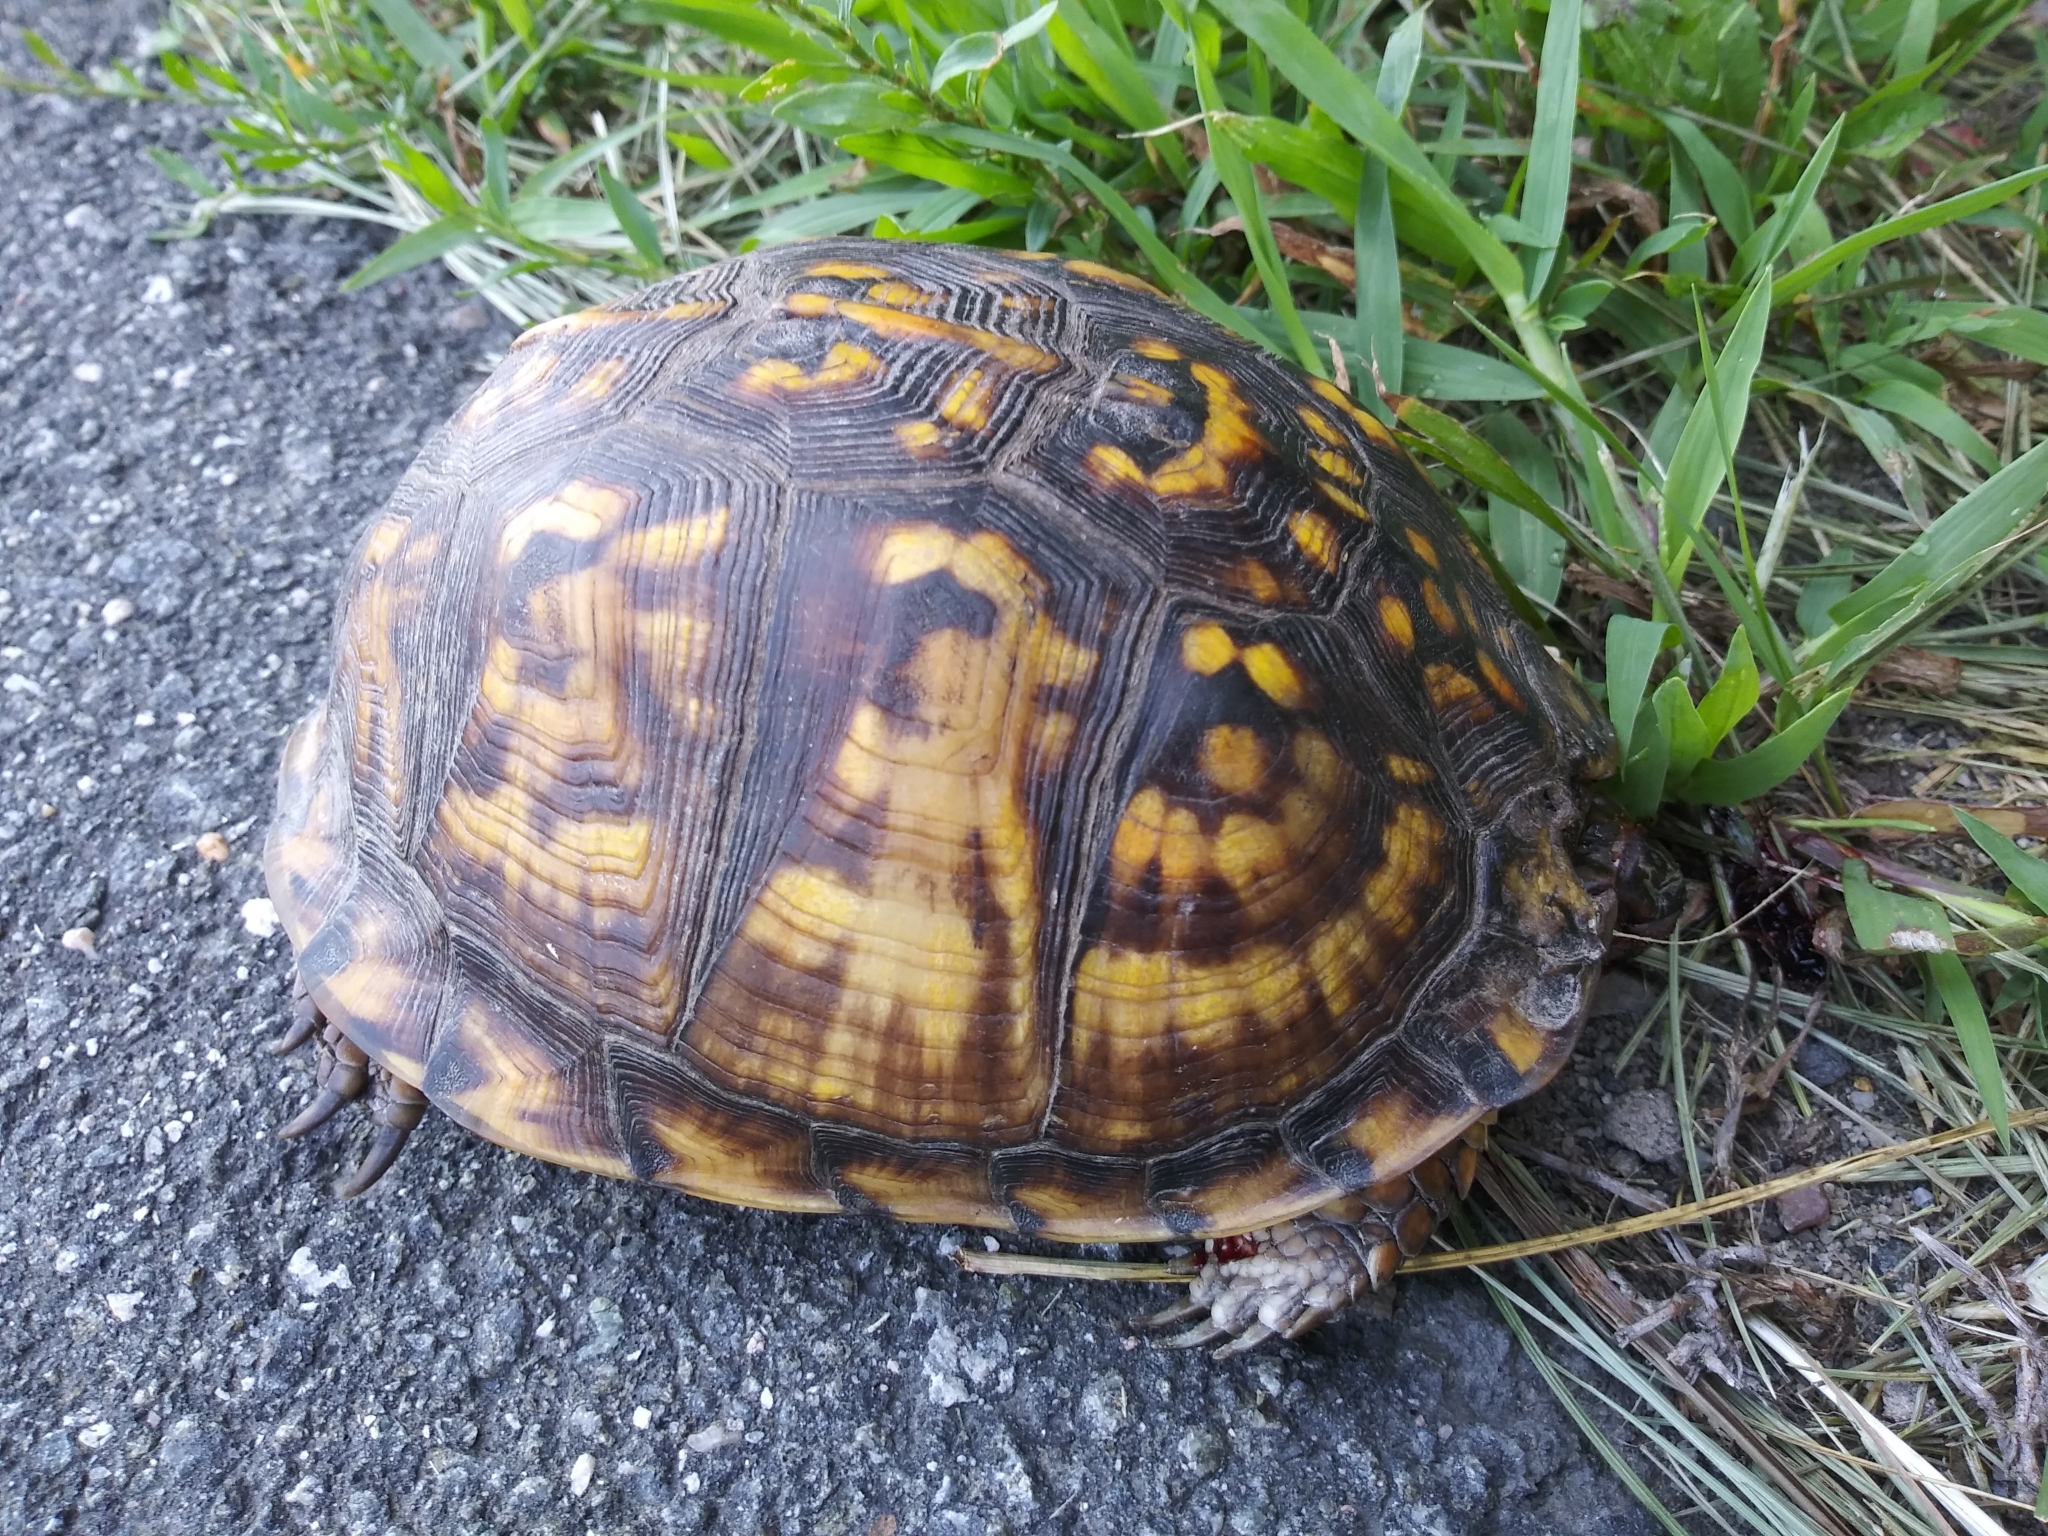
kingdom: Animalia
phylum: Chordata
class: Testudines
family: Emydidae
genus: Terrapene
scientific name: Terrapene carolina
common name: Common box turtle
